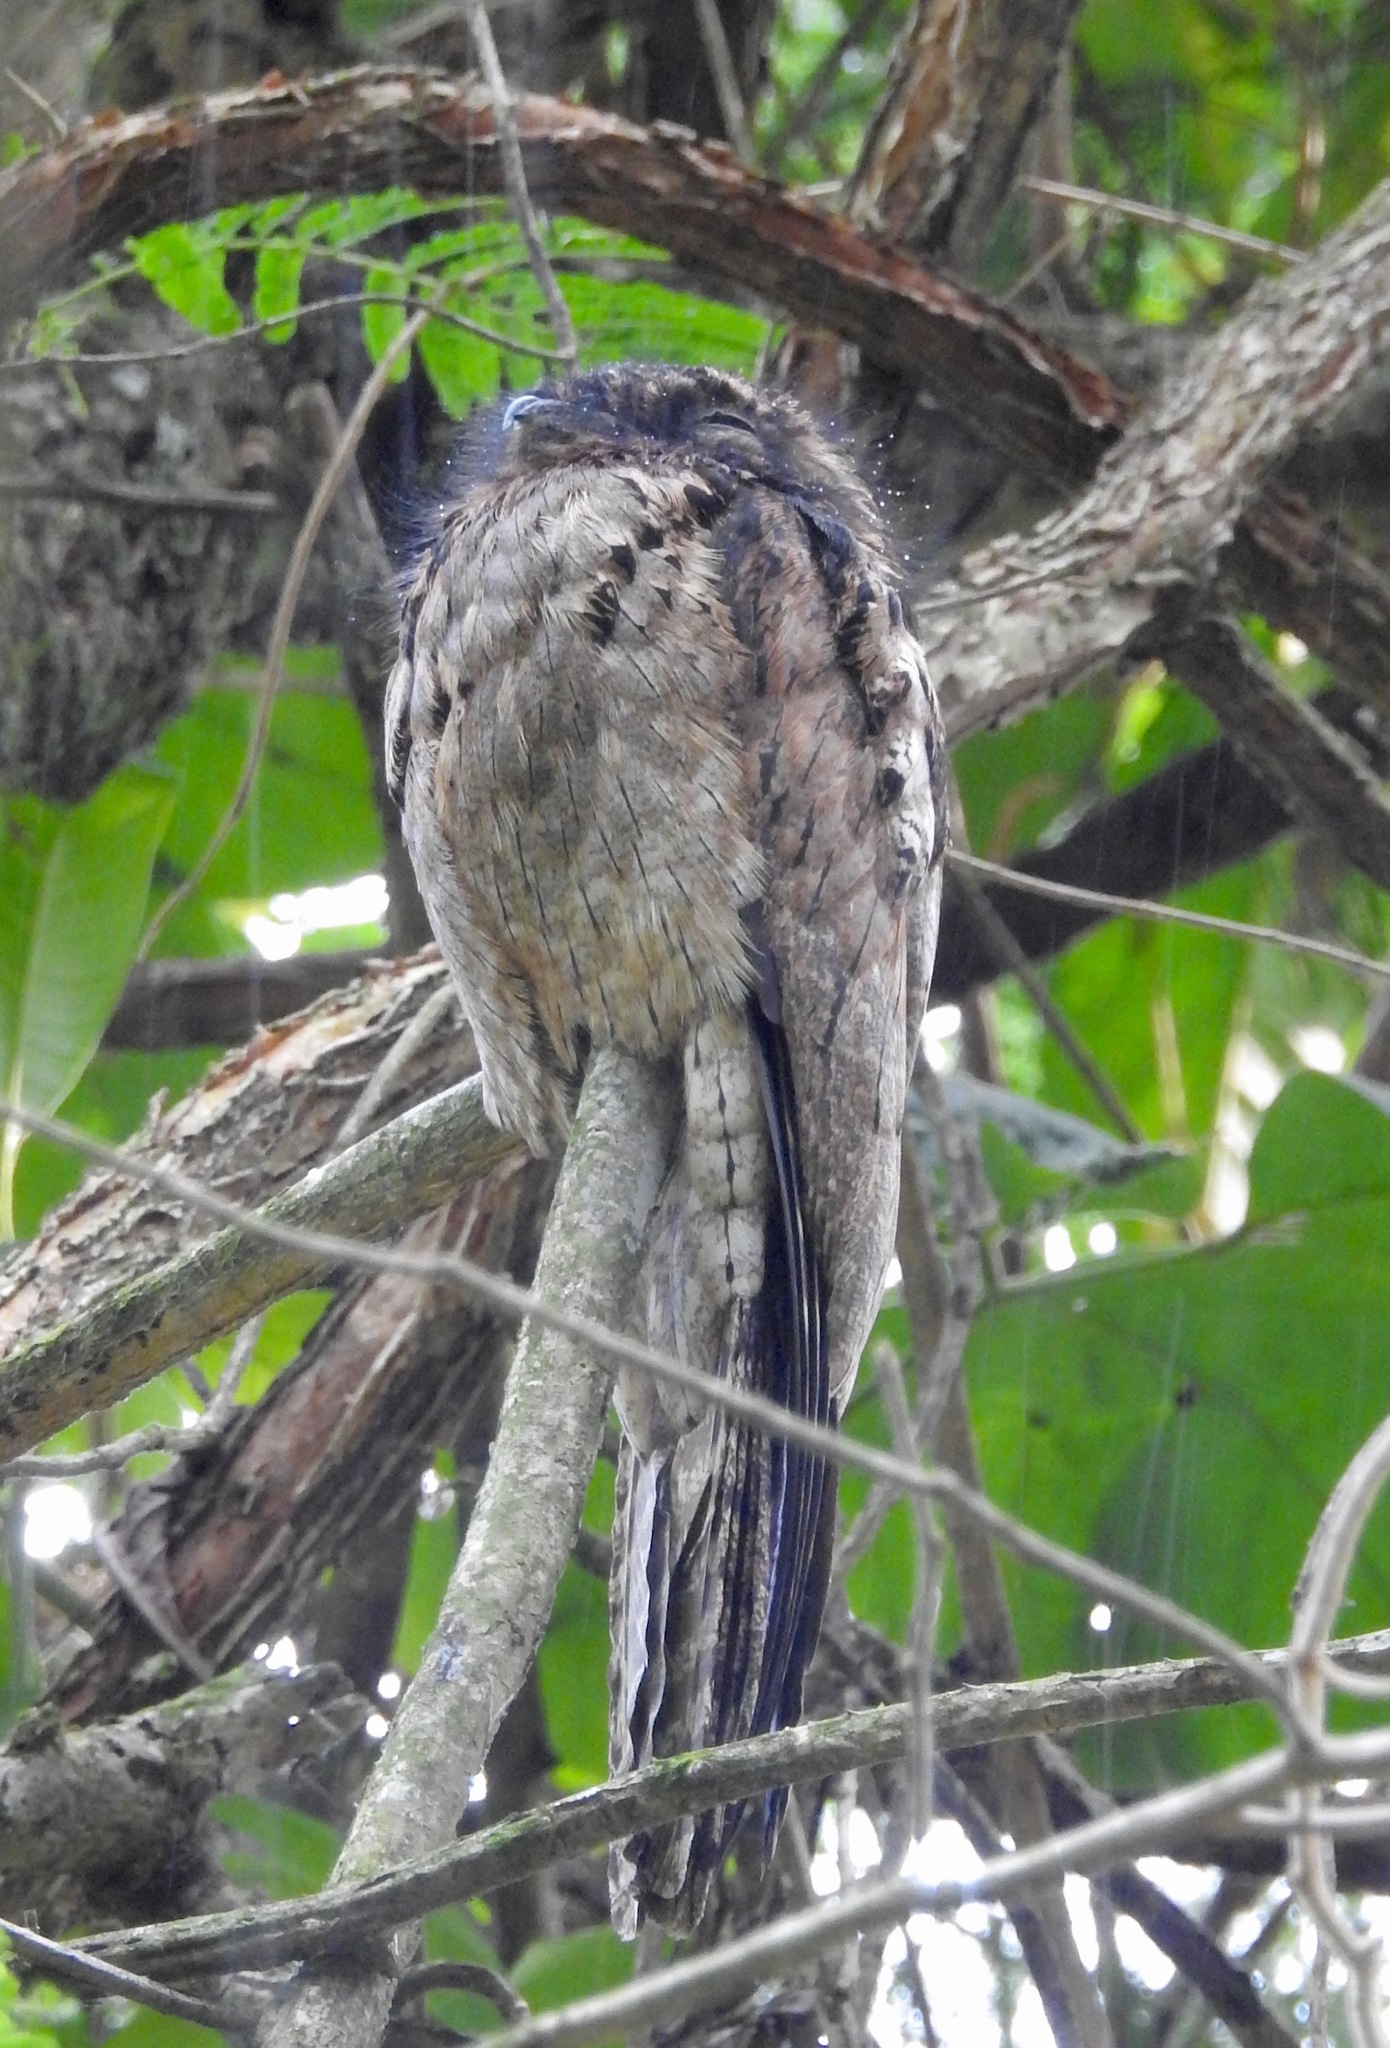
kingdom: Animalia
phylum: Chordata
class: Aves
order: Nyctibiiformes
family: Nyctibiidae
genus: Nyctibius
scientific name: Nyctibius griseus
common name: Common potoo
